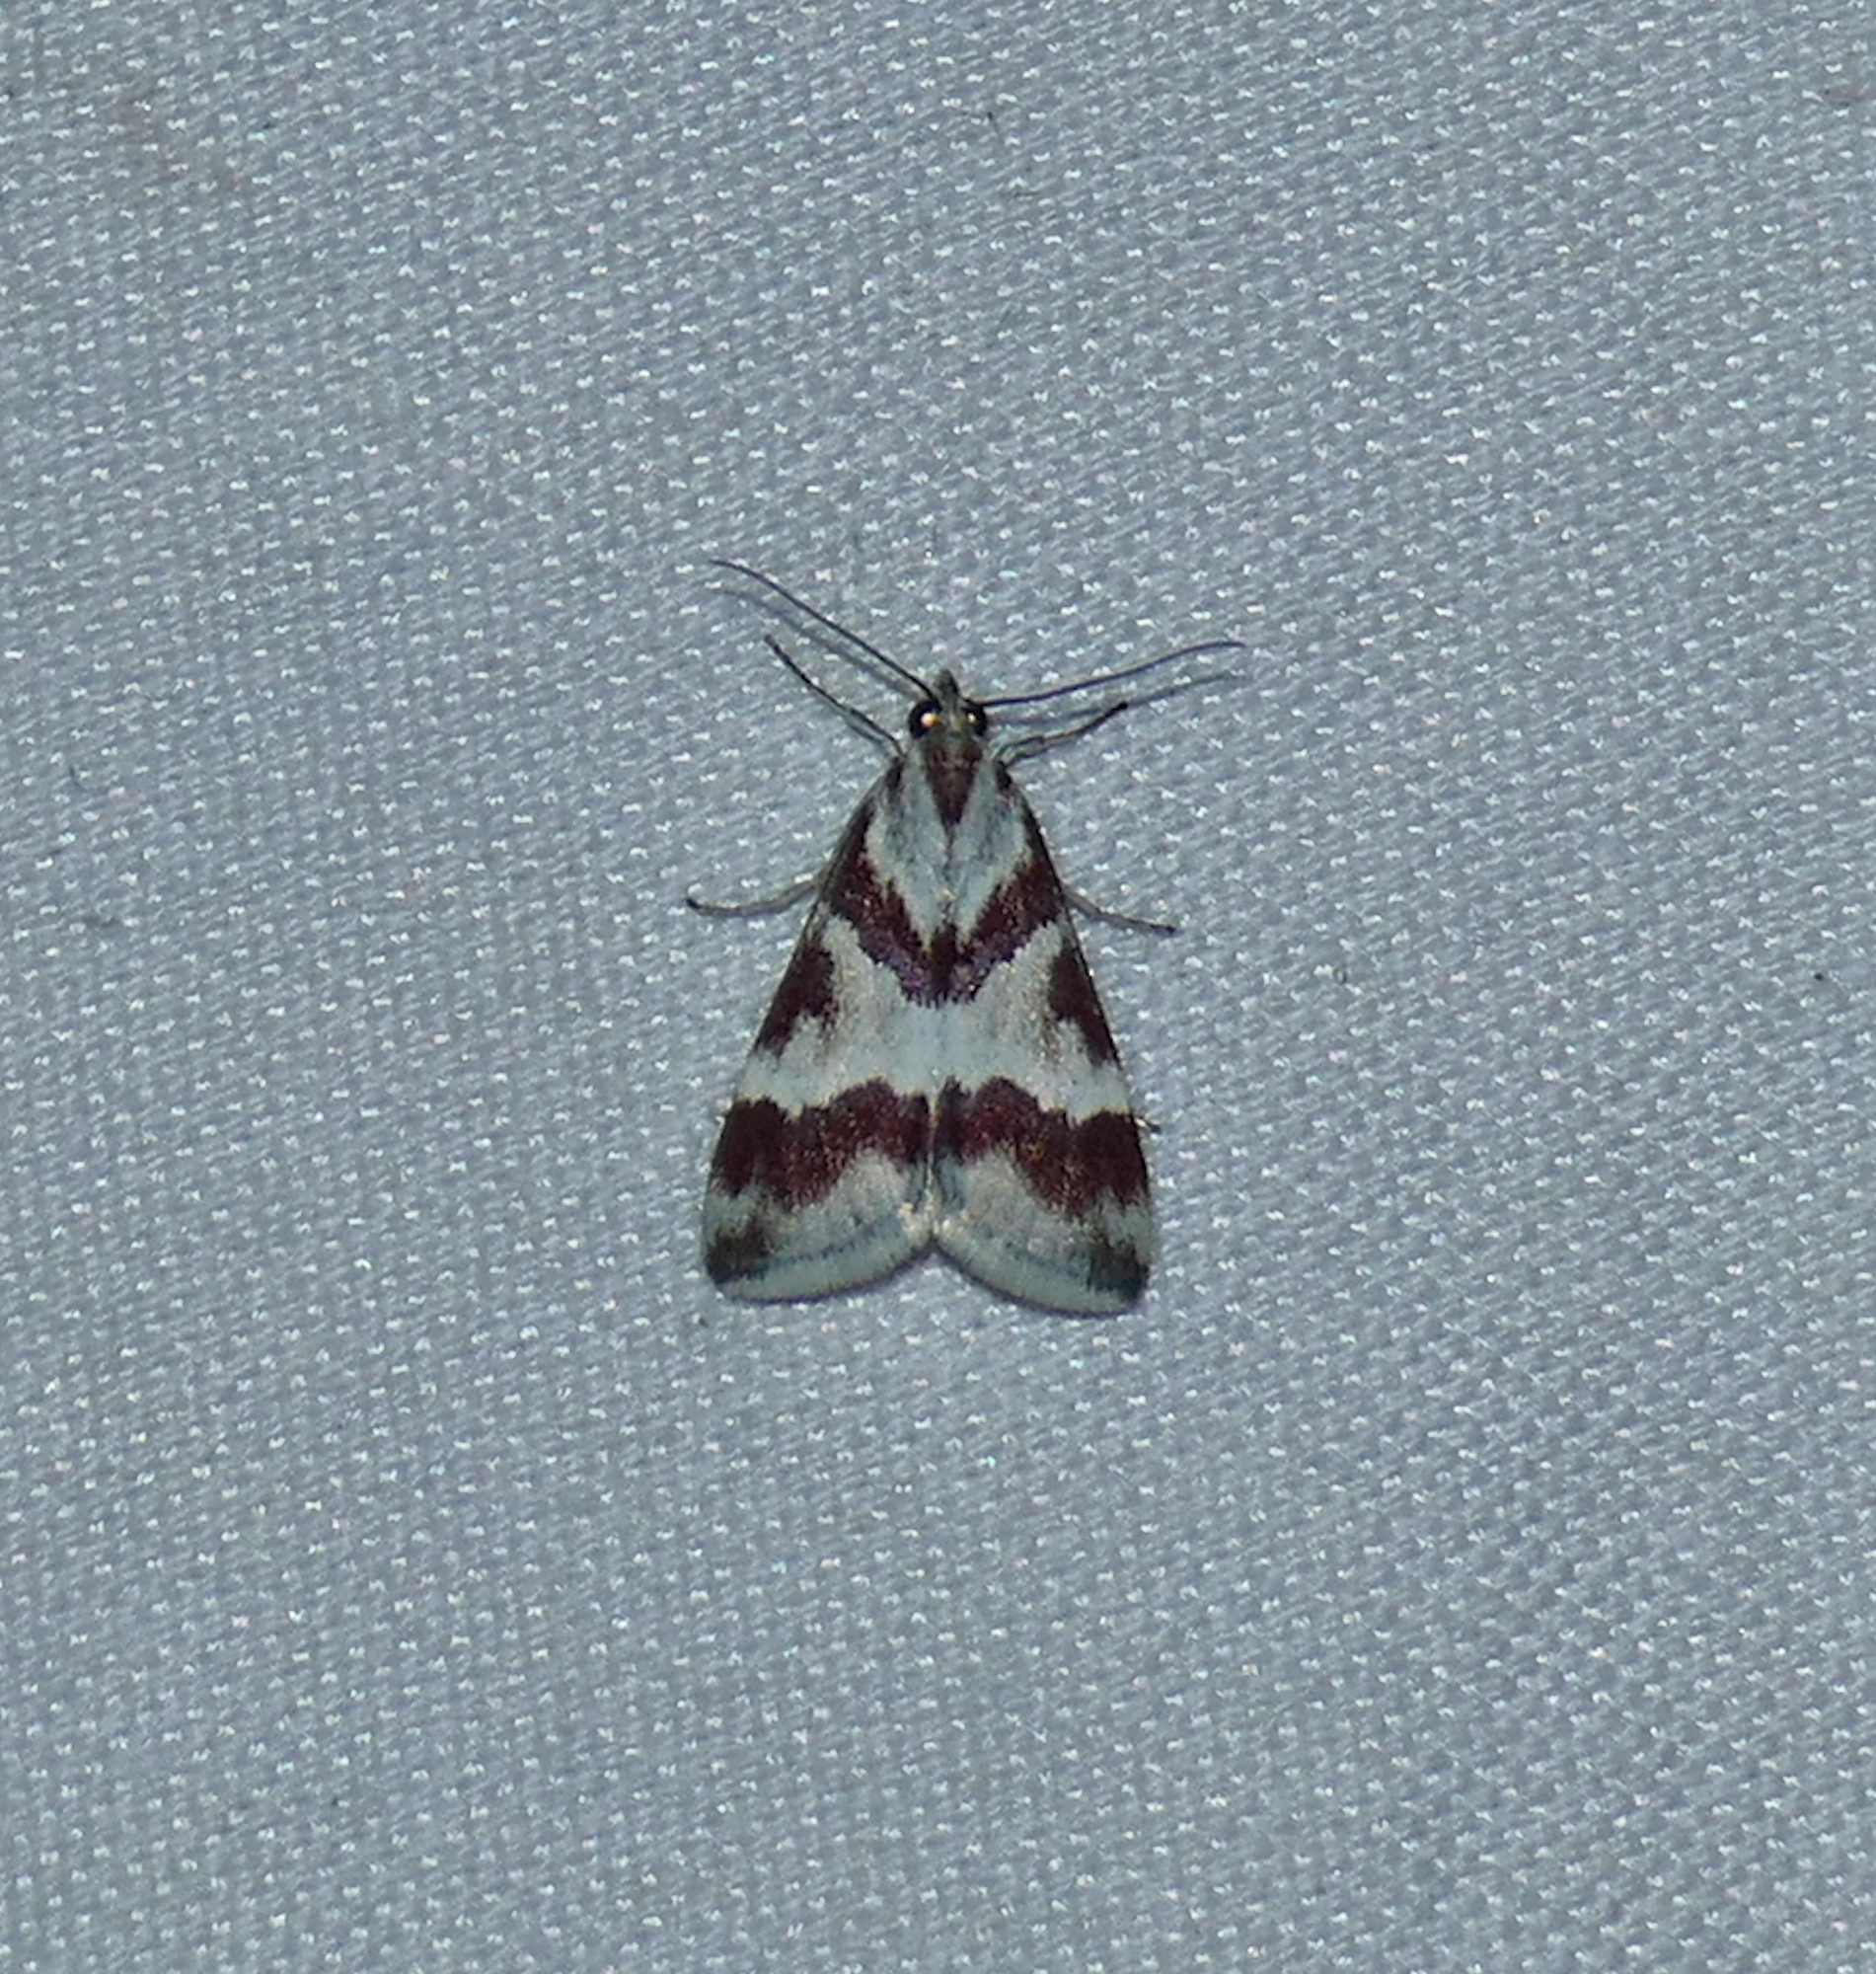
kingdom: Animalia
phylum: Arthropoda
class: Insecta
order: Lepidoptera
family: Crambidae
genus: Noctuelia
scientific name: Noctuelia Mimoschinia rufofascialis
